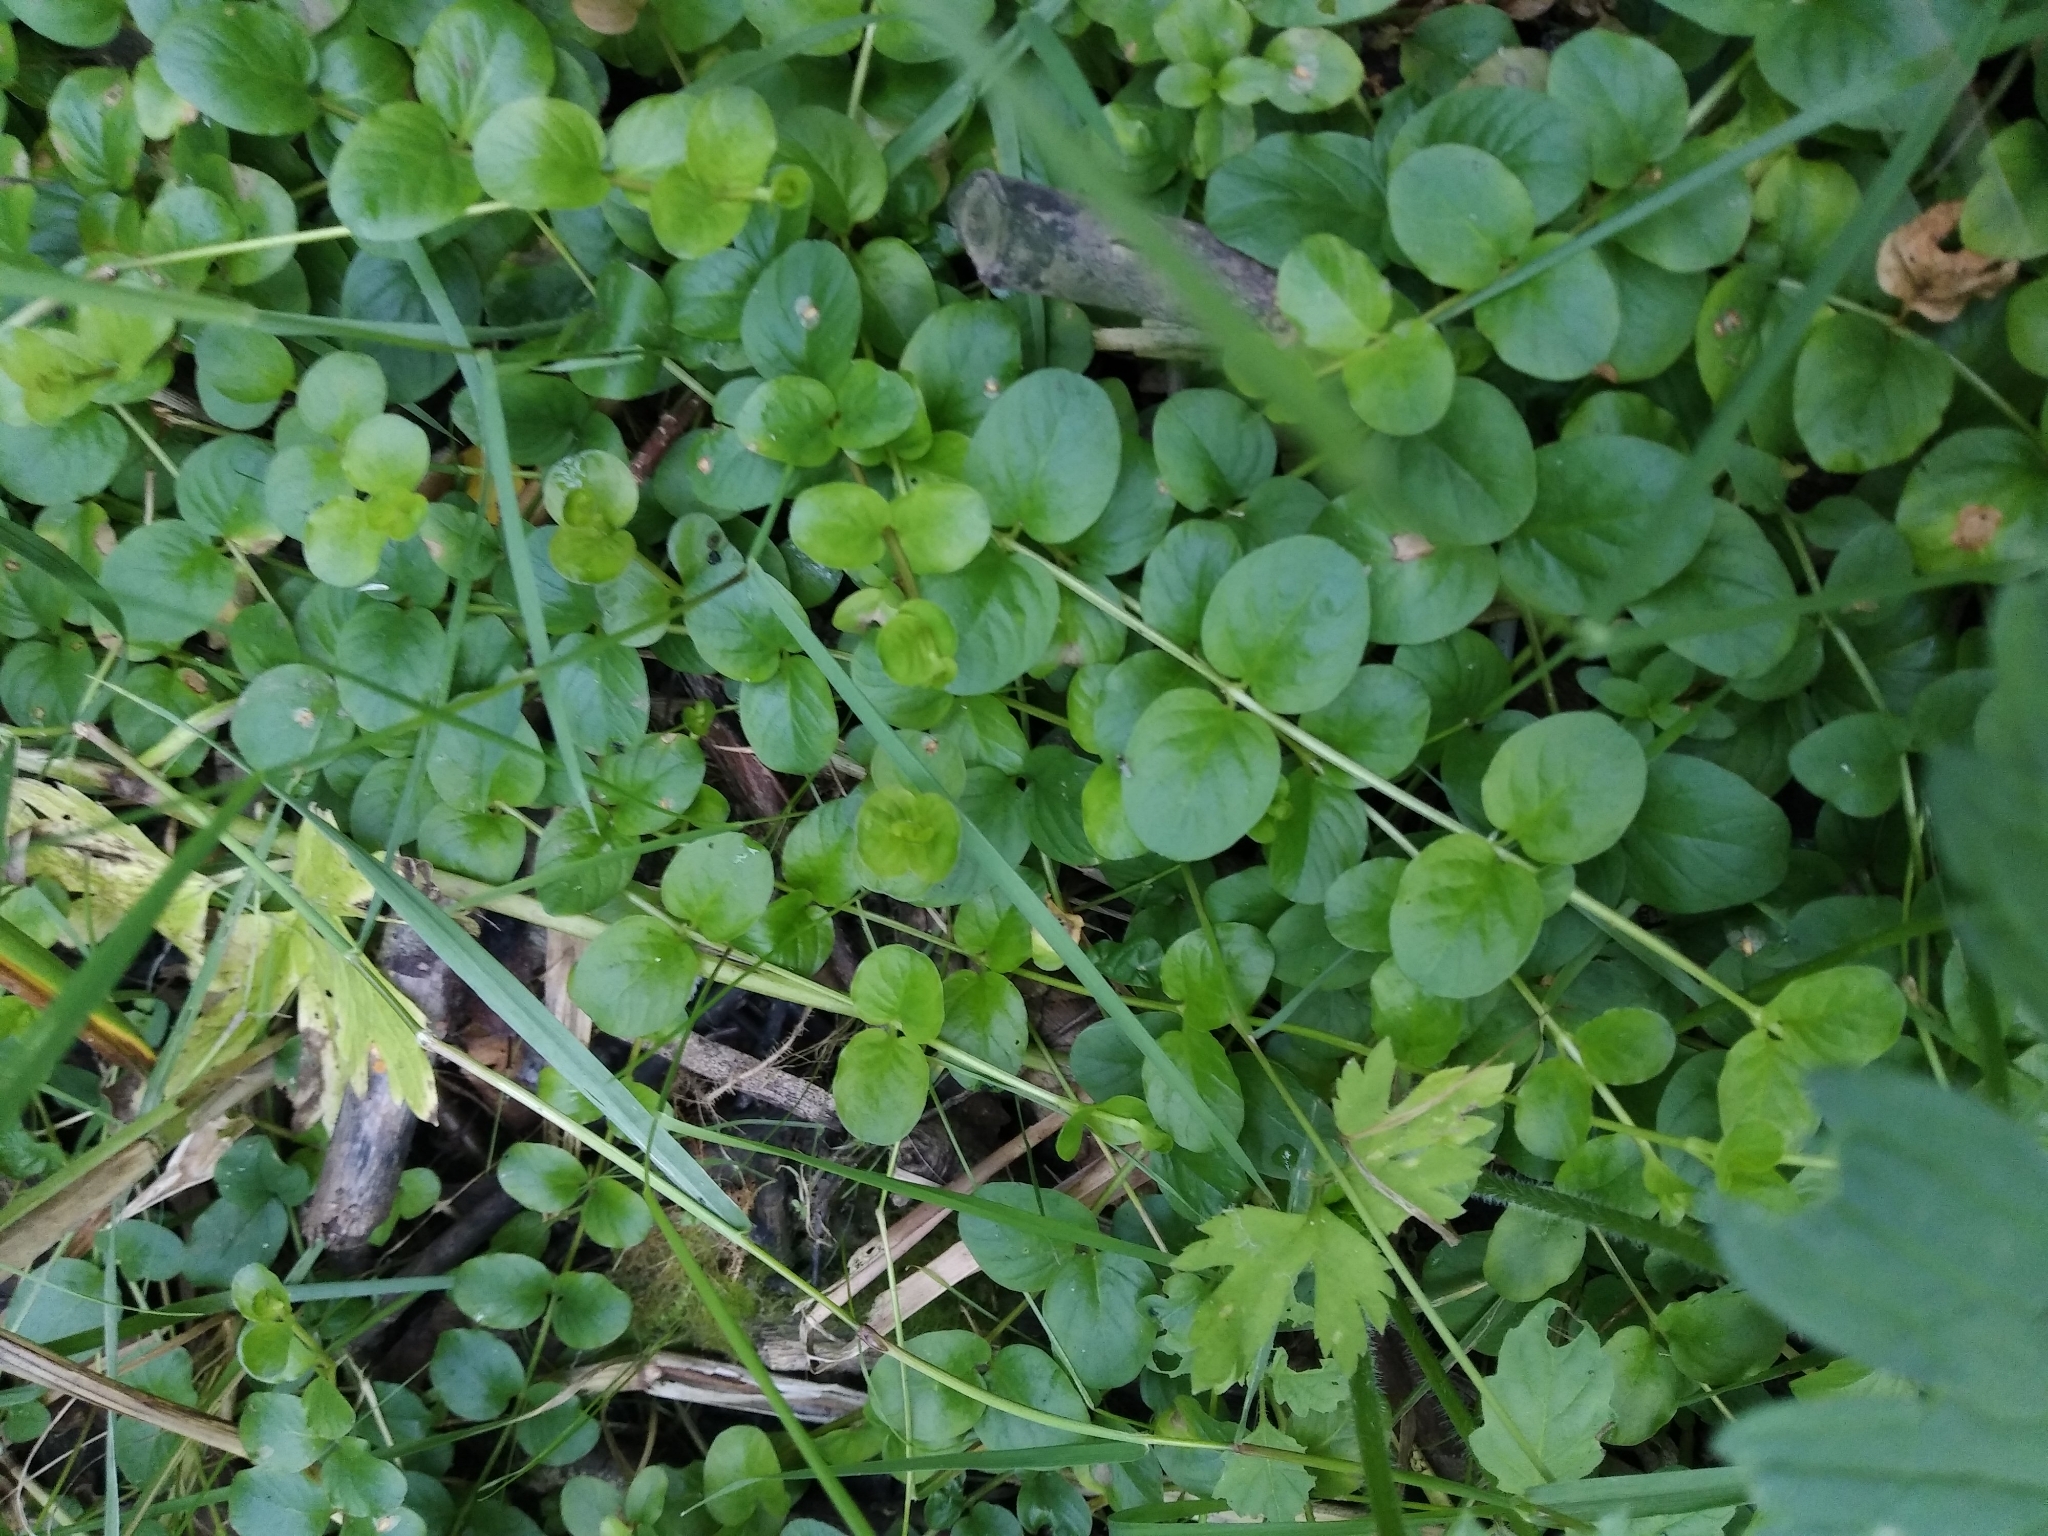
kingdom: Plantae
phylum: Tracheophyta
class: Magnoliopsida
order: Ericales
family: Primulaceae
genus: Lysimachia
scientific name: Lysimachia nummularia
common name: Moneywort
